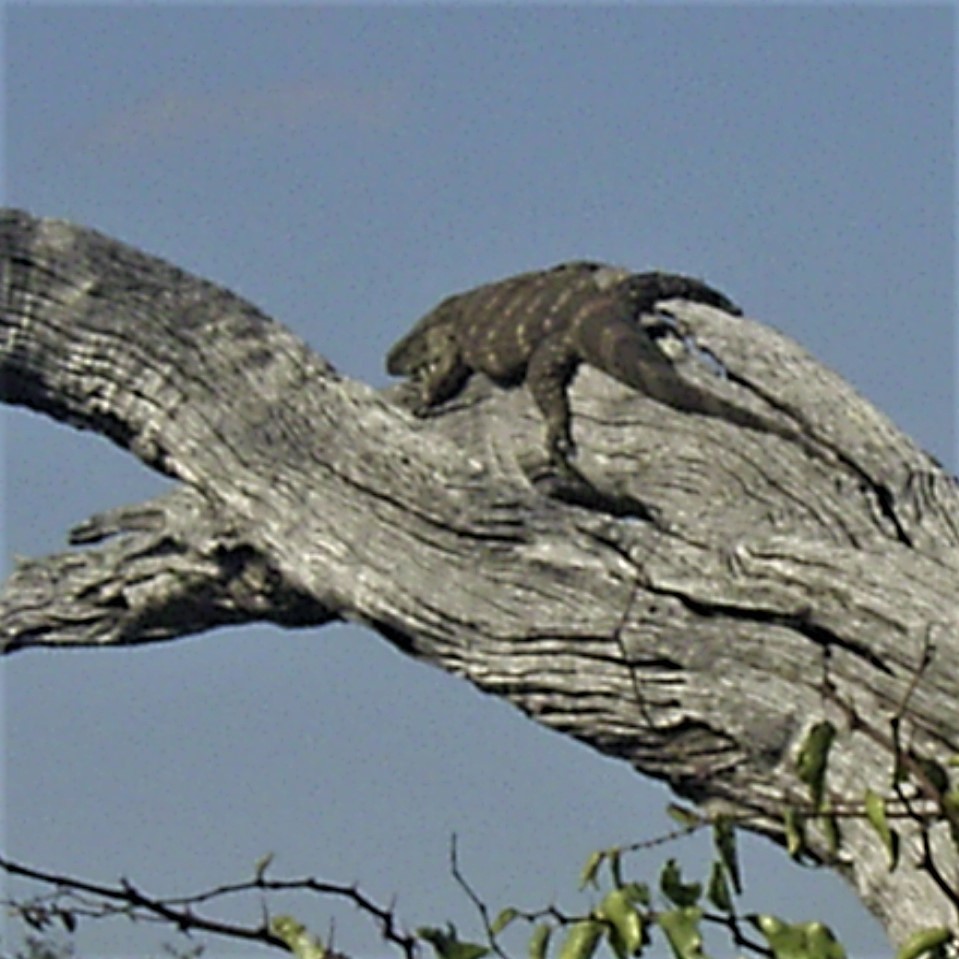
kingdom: Animalia
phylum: Chordata
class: Squamata
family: Varanidae
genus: Varanus
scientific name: Varanus albigularis
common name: White-throated monitor
